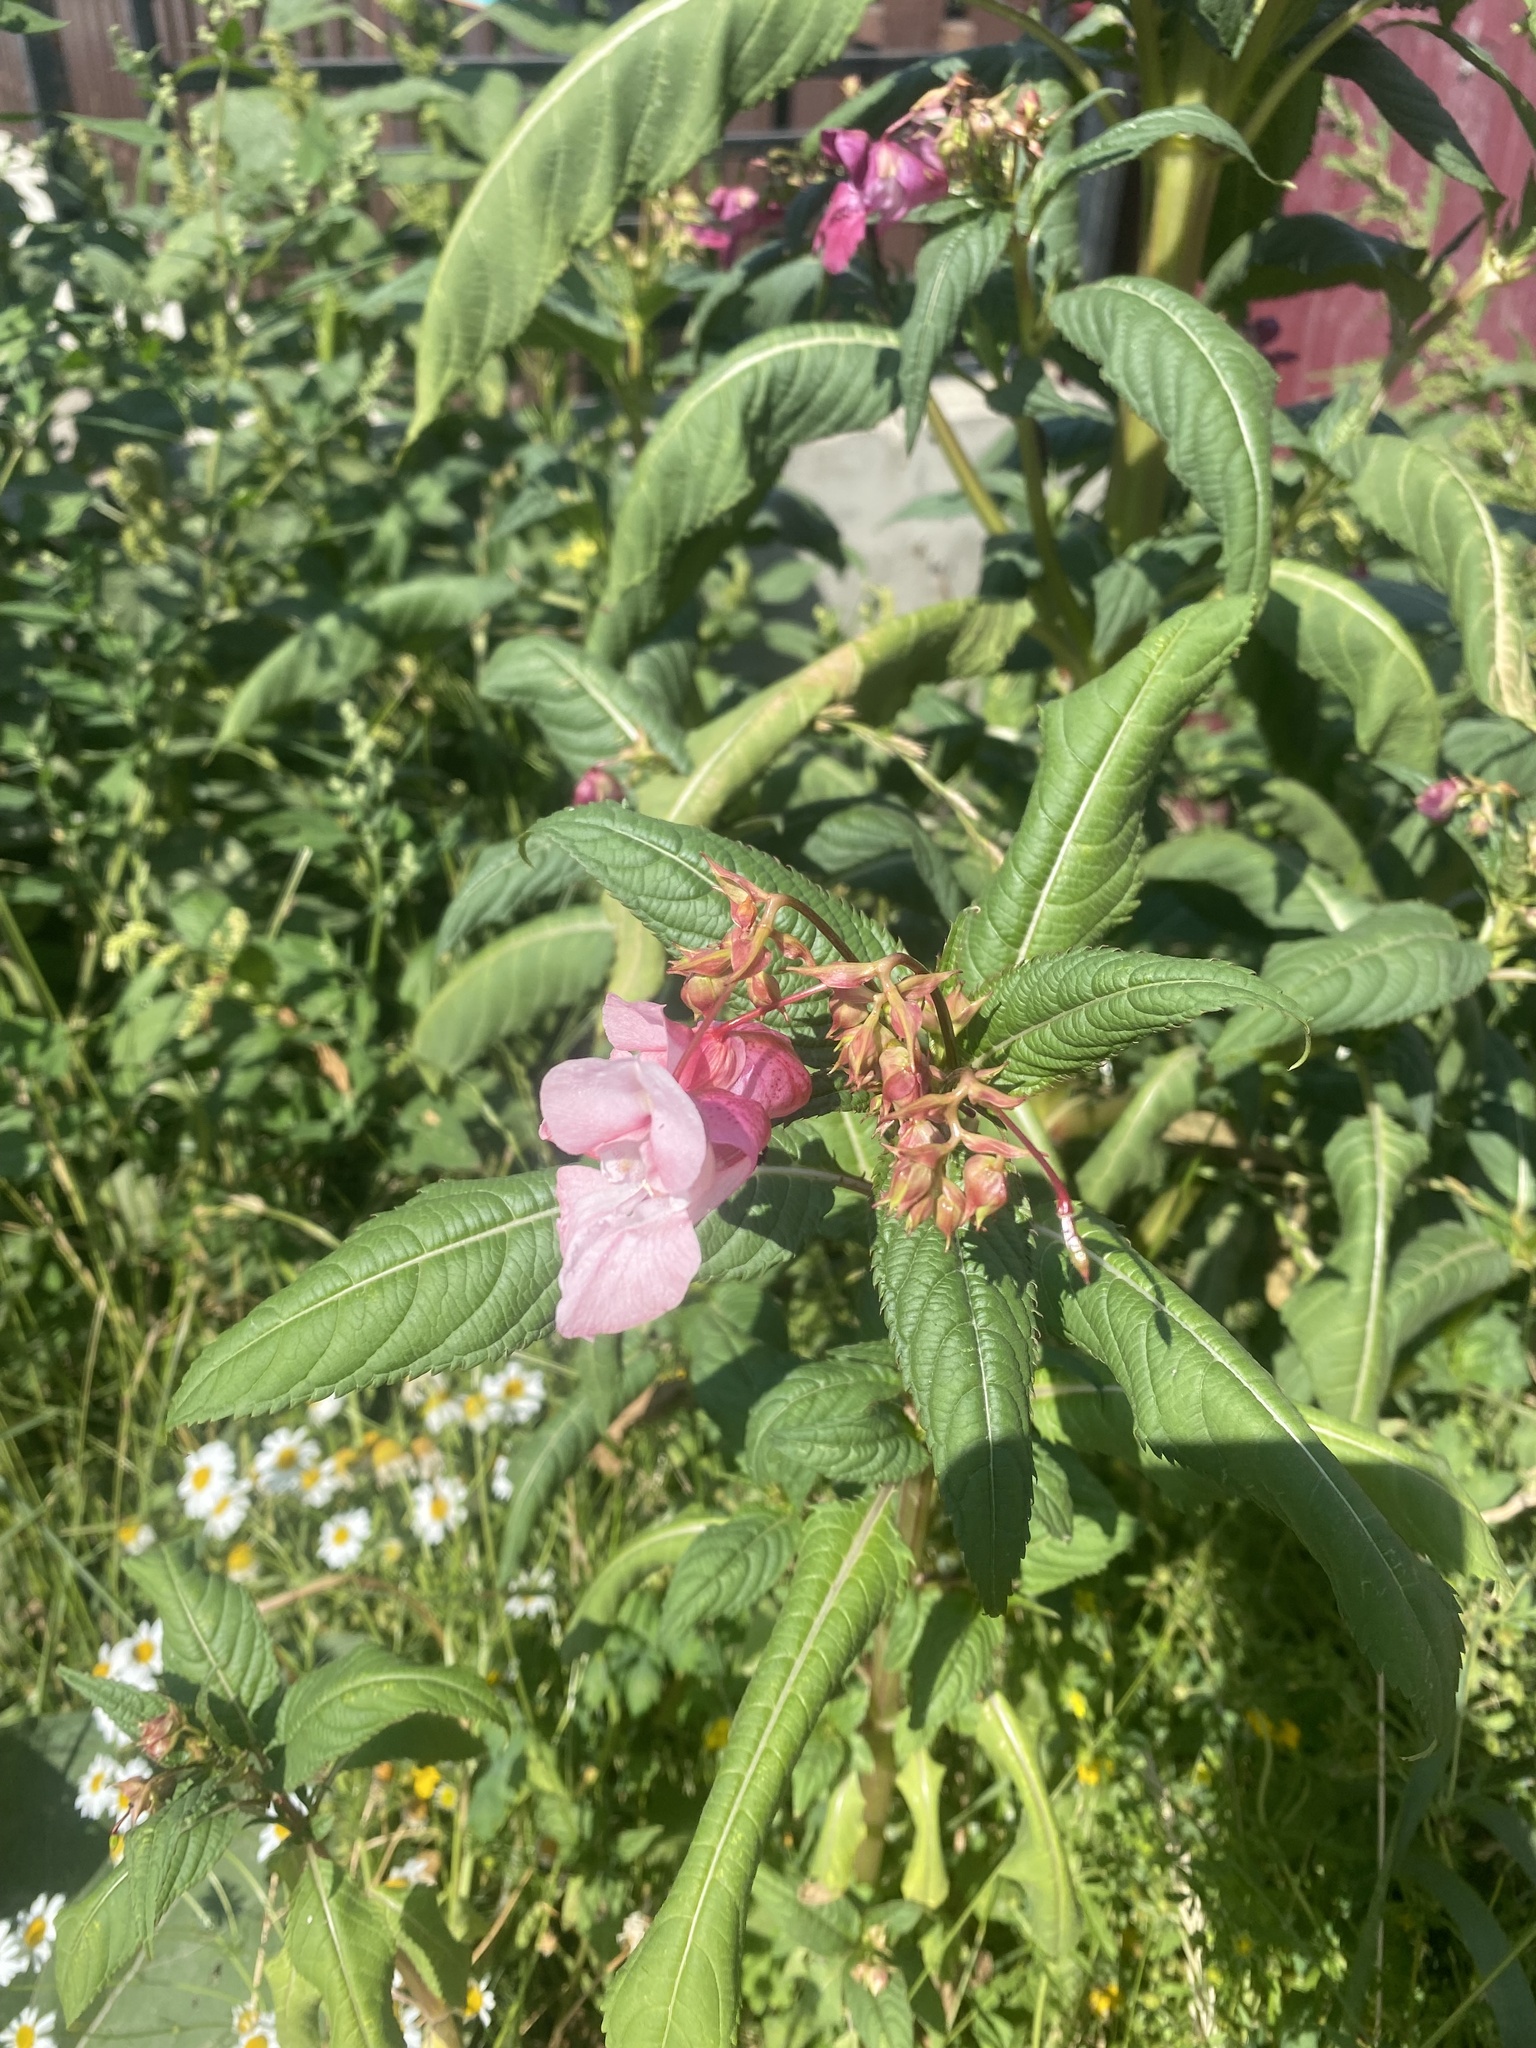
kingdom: Plantae
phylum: Tracheophyta
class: Magnoliopsida
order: Ericales
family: Balsaminaceae
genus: Impatiens
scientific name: Impatiens glandulifera
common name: Himalayan balsam
